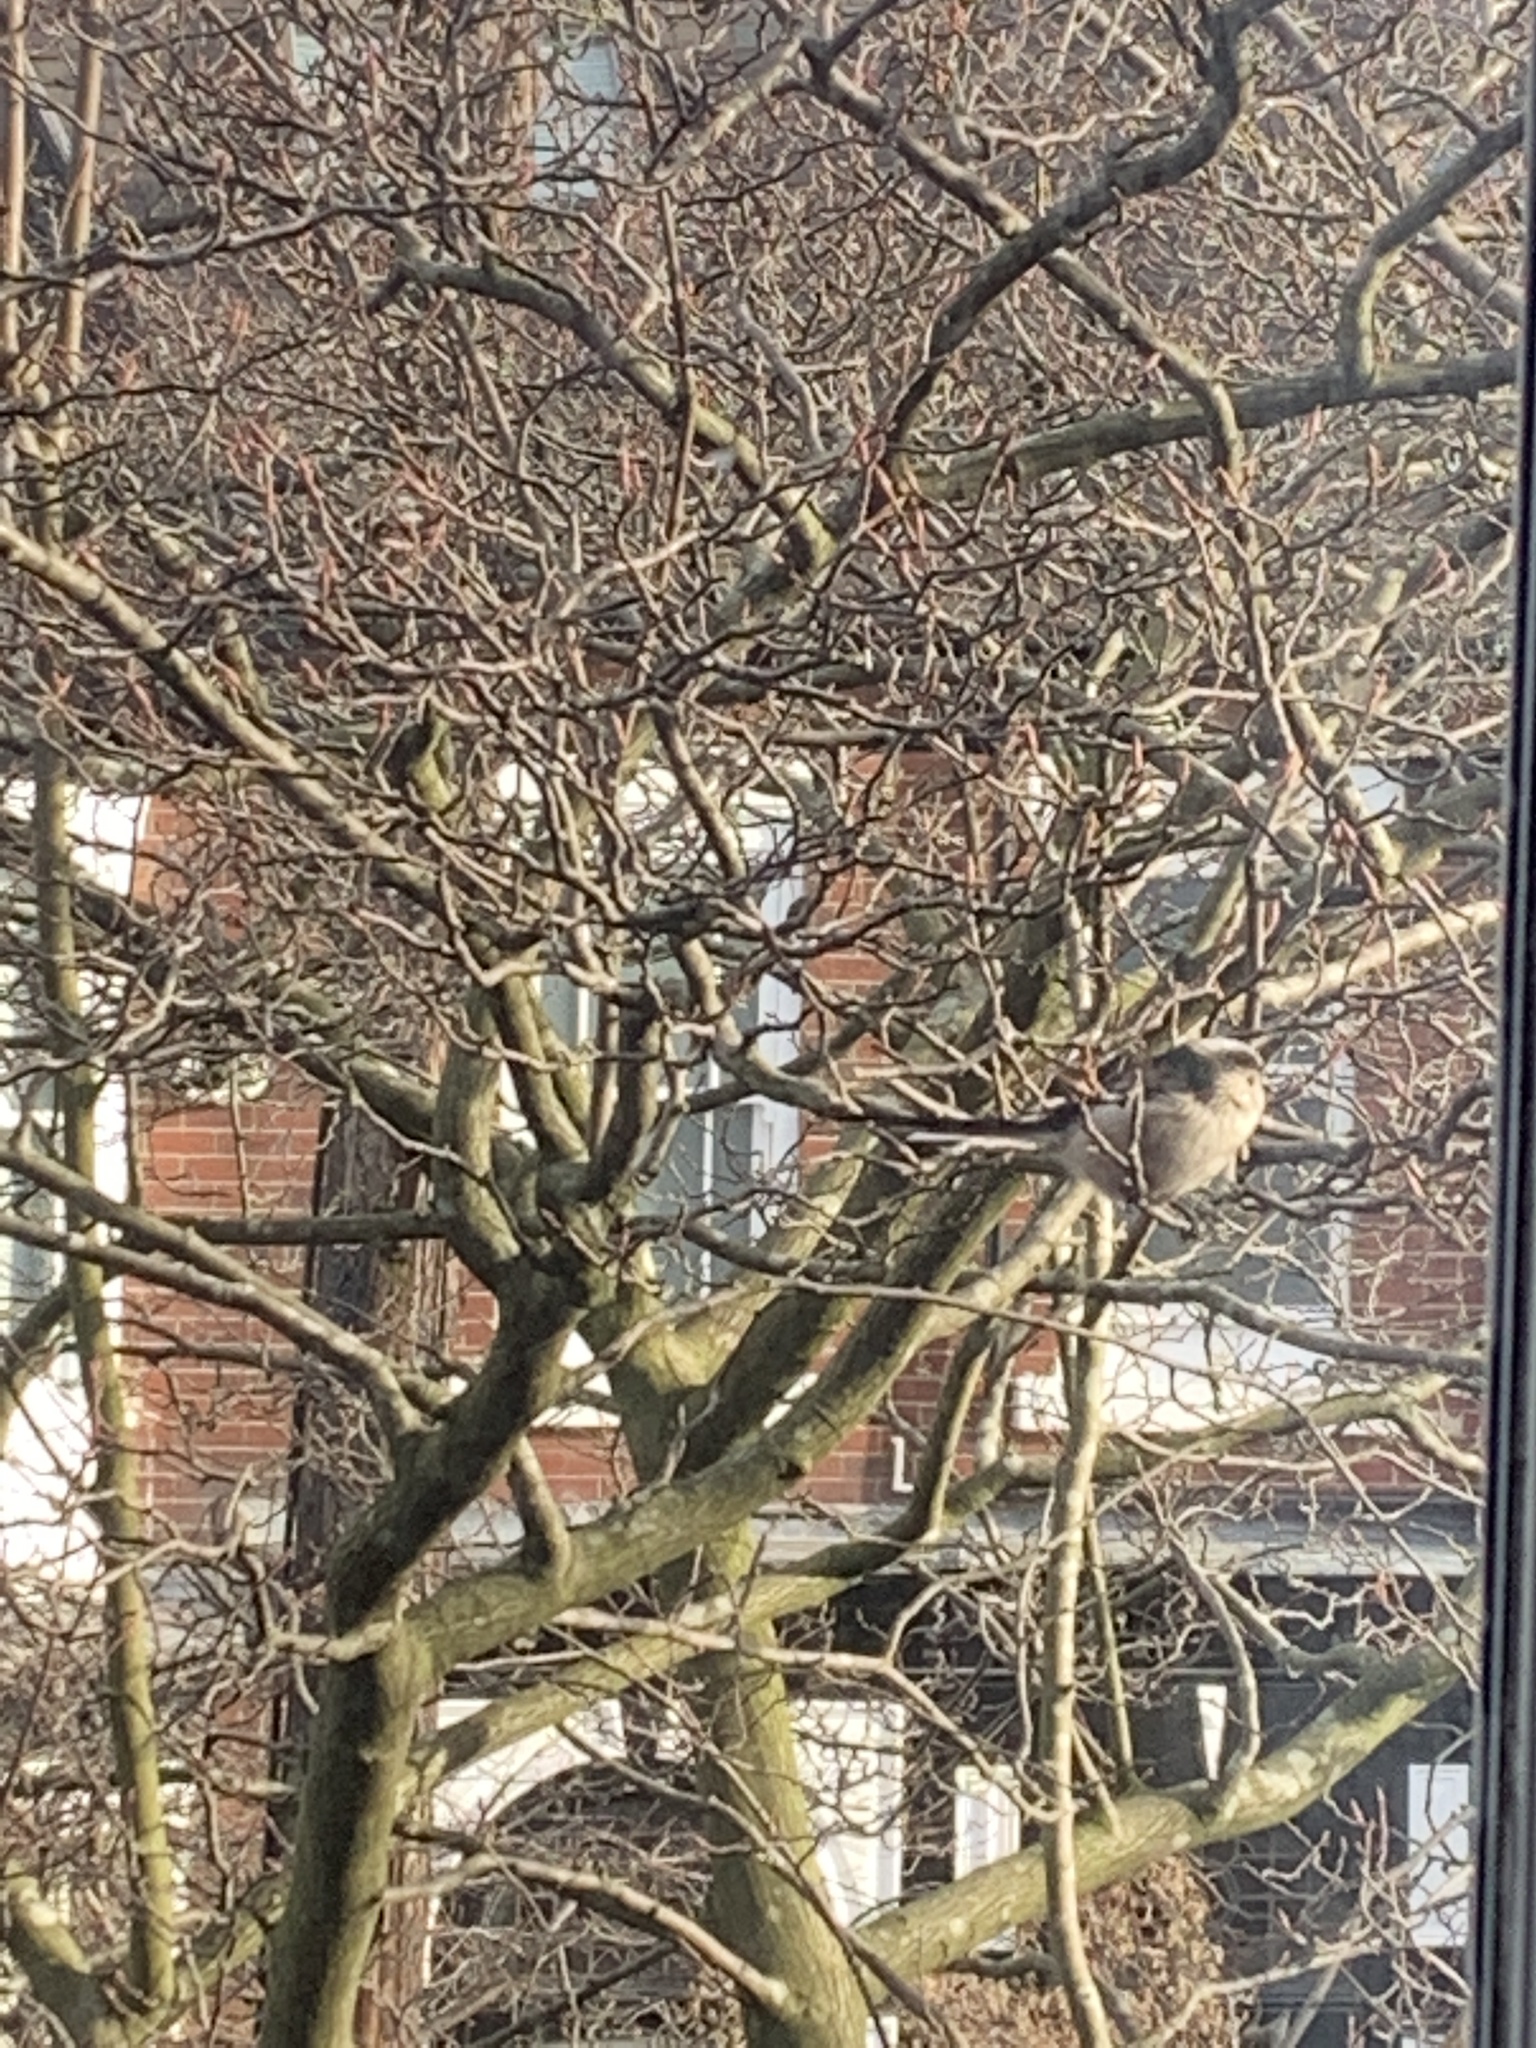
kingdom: Animalia
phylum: Chordata
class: Aves
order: Passeriformes
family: Aegithalidae
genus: Aegithalos
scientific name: Aegithalos caudatus
